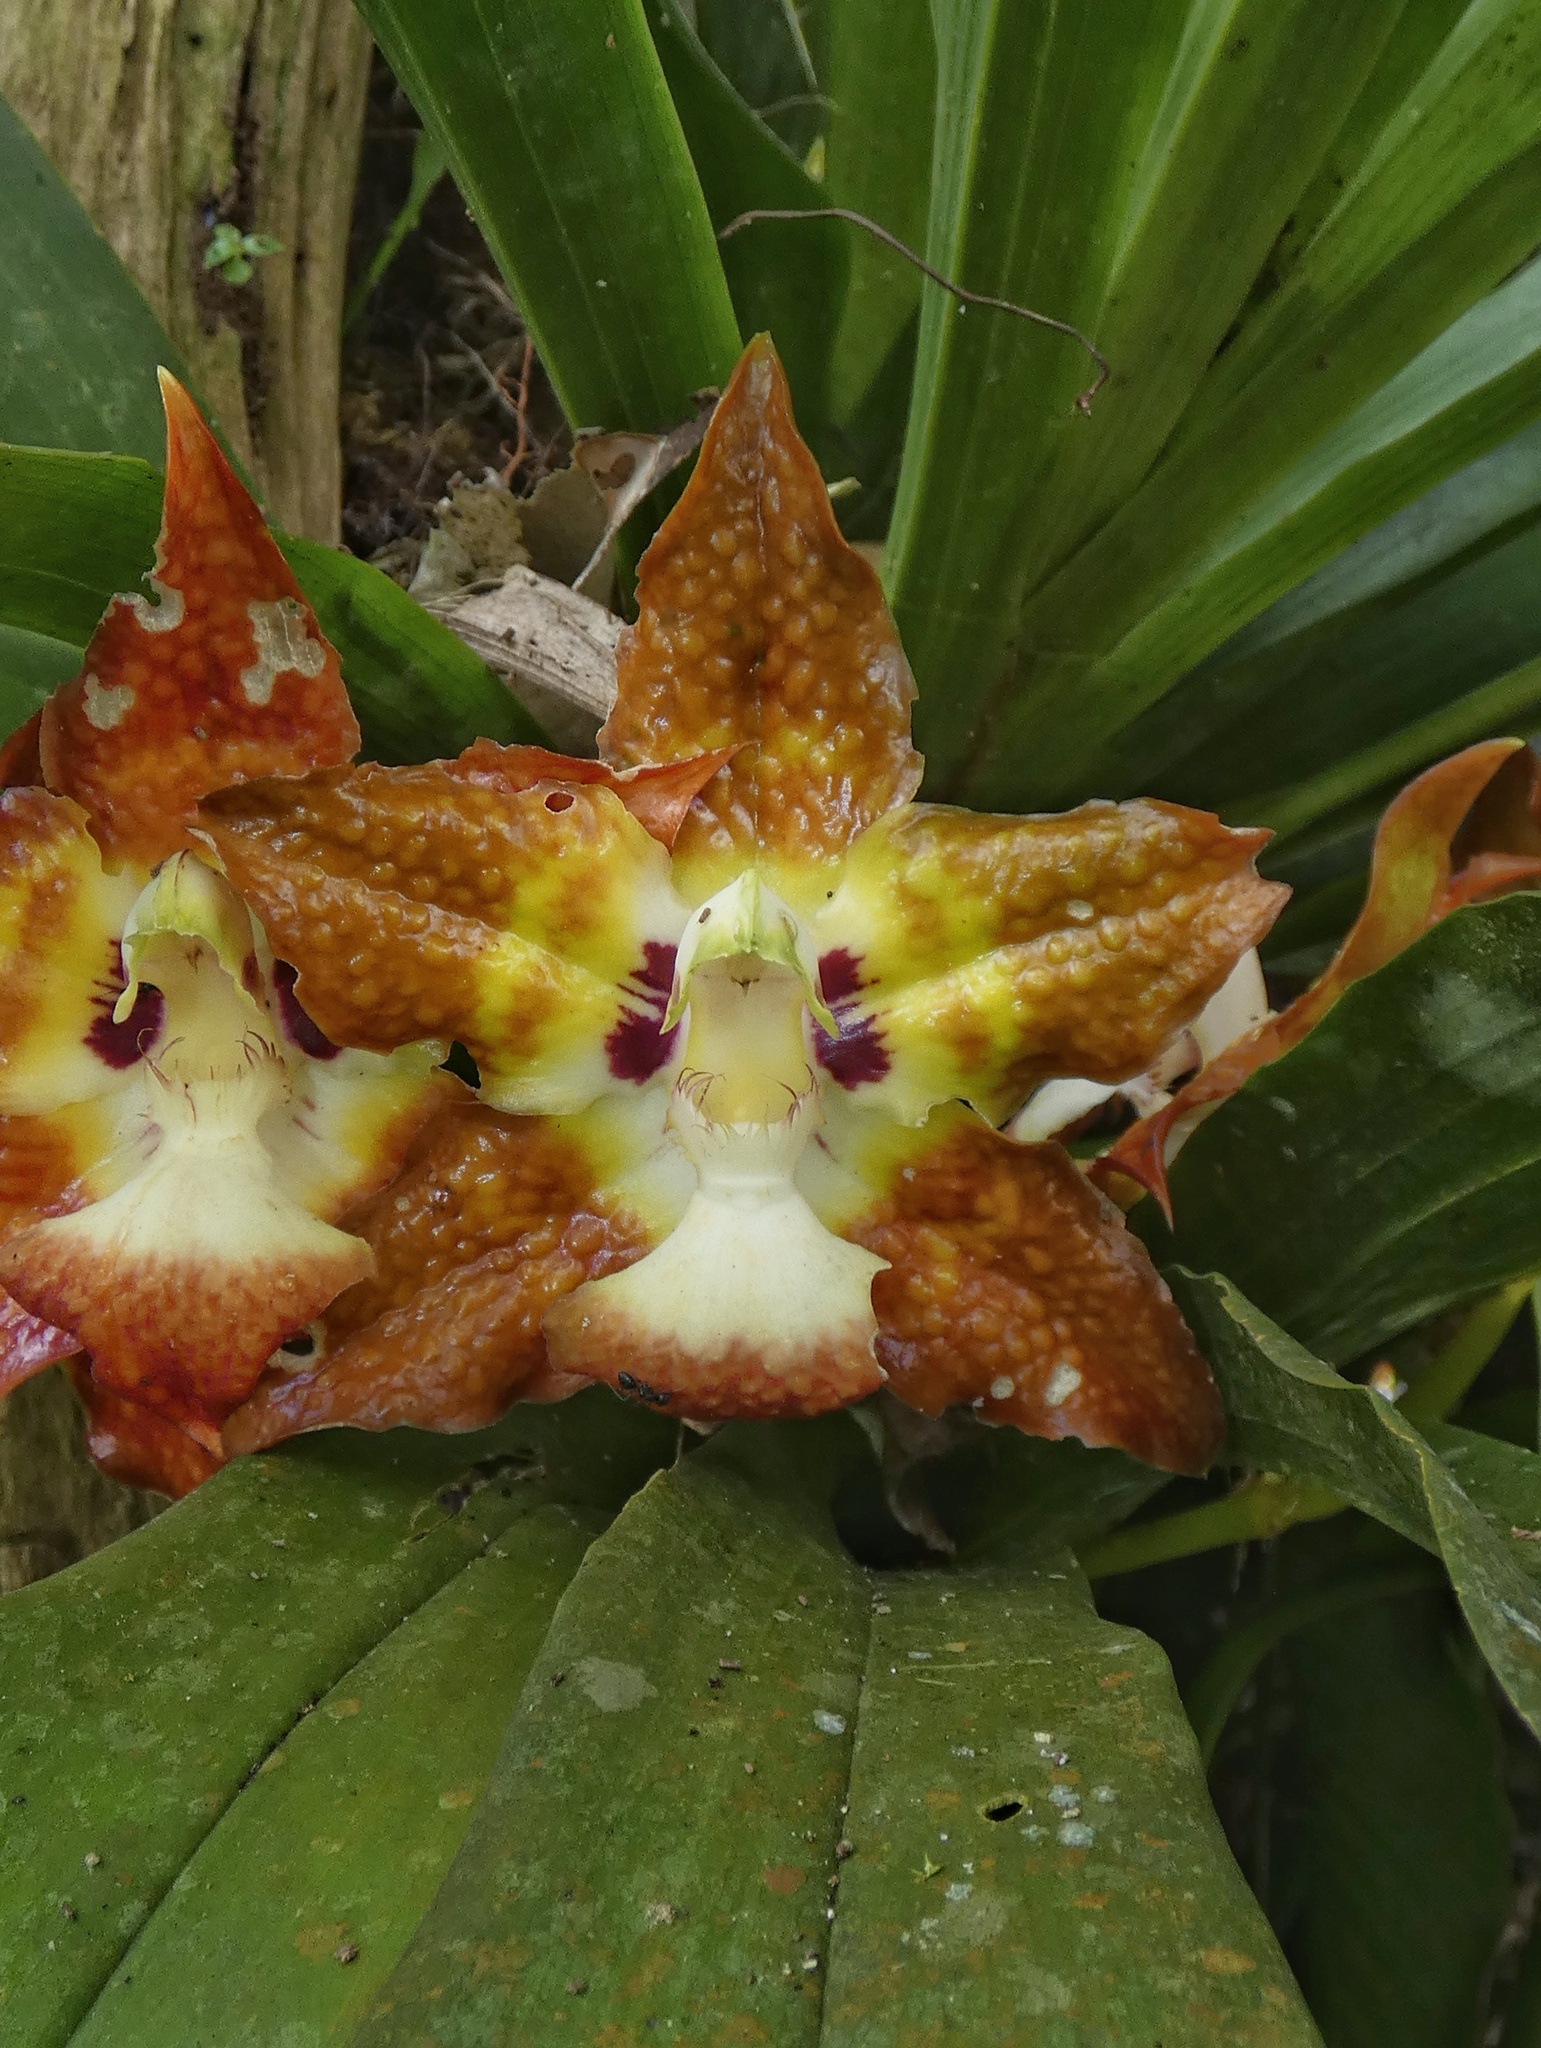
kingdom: Plantae
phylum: Tracheophyta
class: Liliopsida
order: Asparagales
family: Orchidaceae
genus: Huntleya
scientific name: Huntleya burtii
